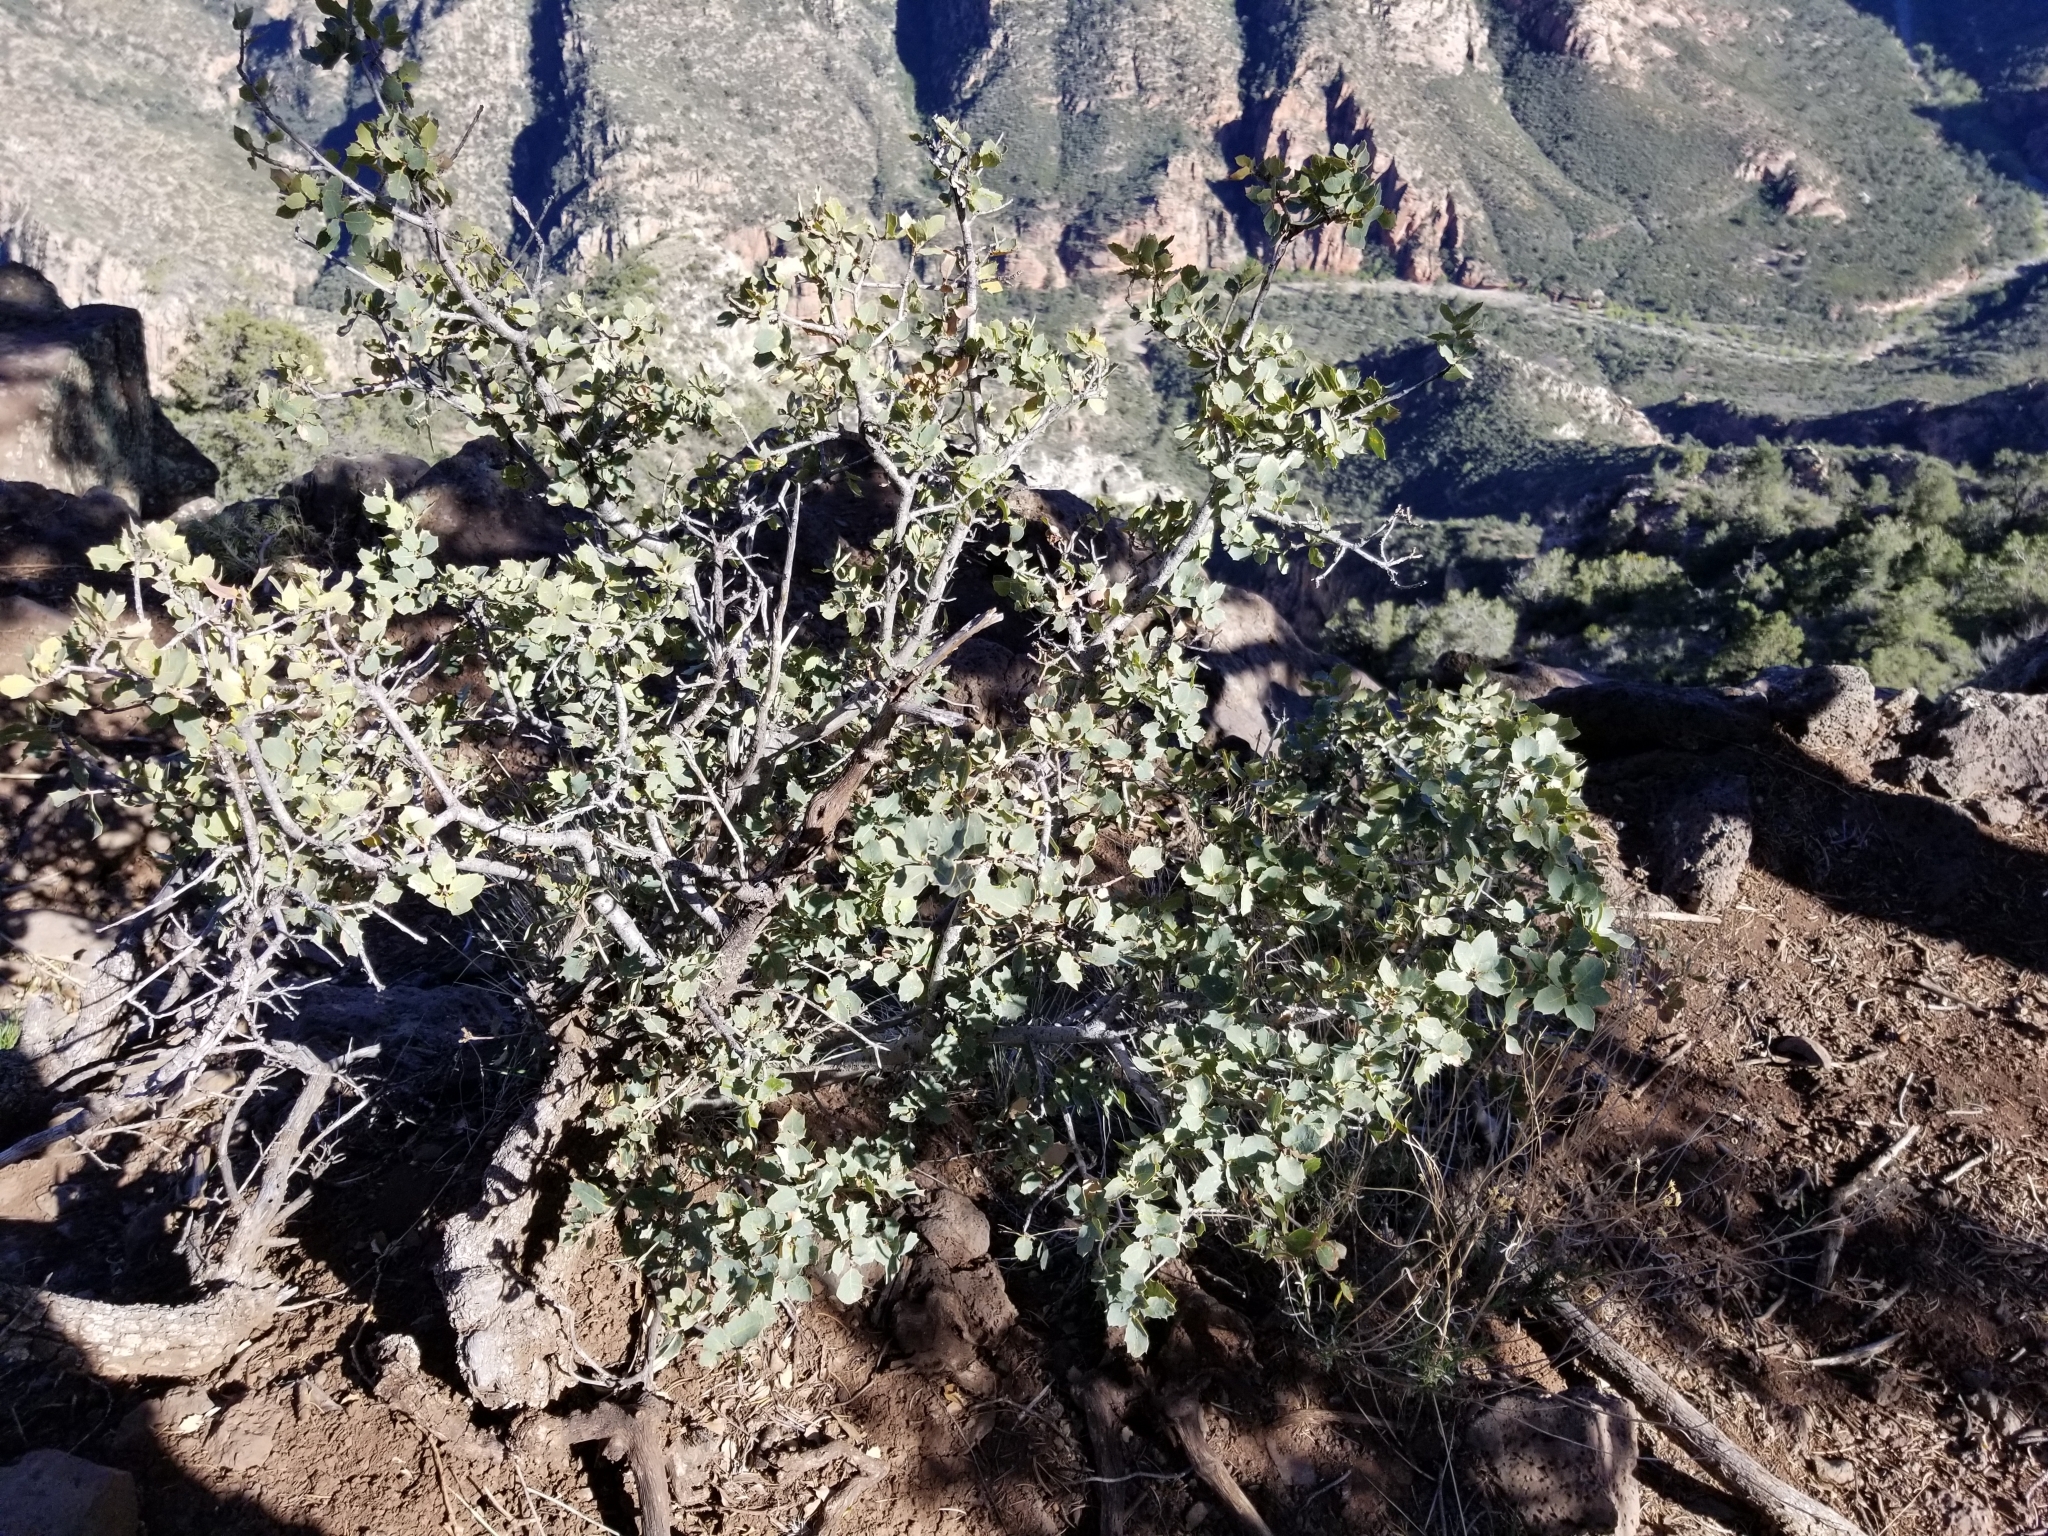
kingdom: Plantae
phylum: Tracheophyta
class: Magnoliopsida
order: Fagales
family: Fagaceae
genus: Quercus
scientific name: Quercus turbinella
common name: Sonoran scrub oak
